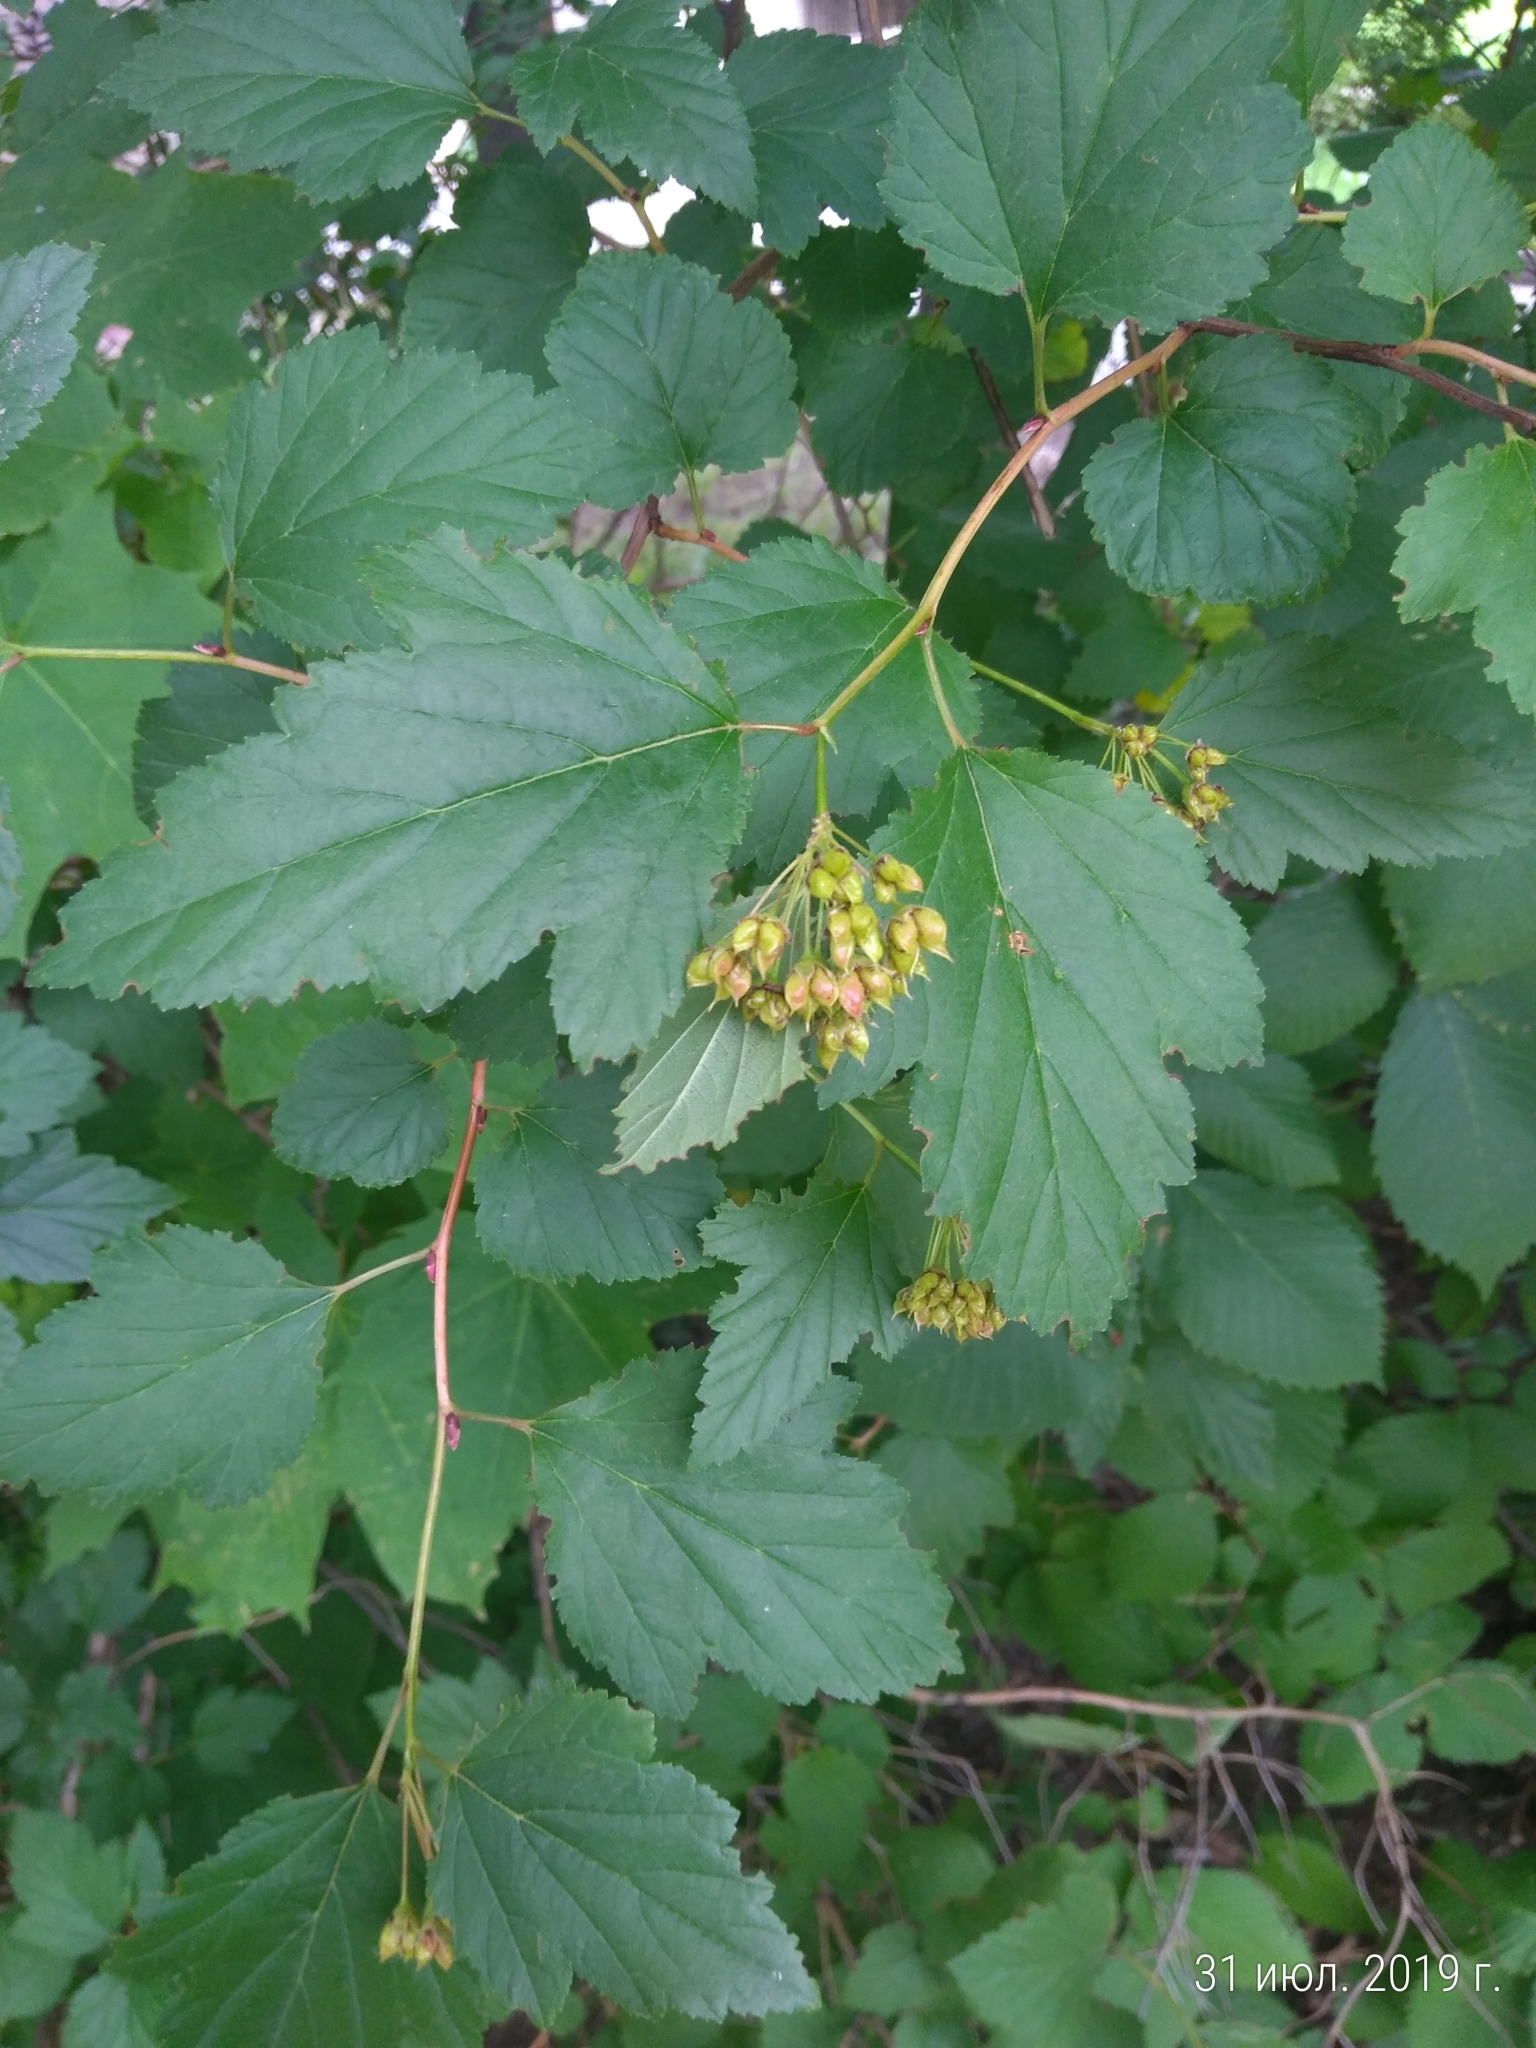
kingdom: Plantae
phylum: Tracheophyta
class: Magnoliopsida
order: Rosales
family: Rosaceae
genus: Physocarpus
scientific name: Physocarpus opulifolius
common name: Ninebark
